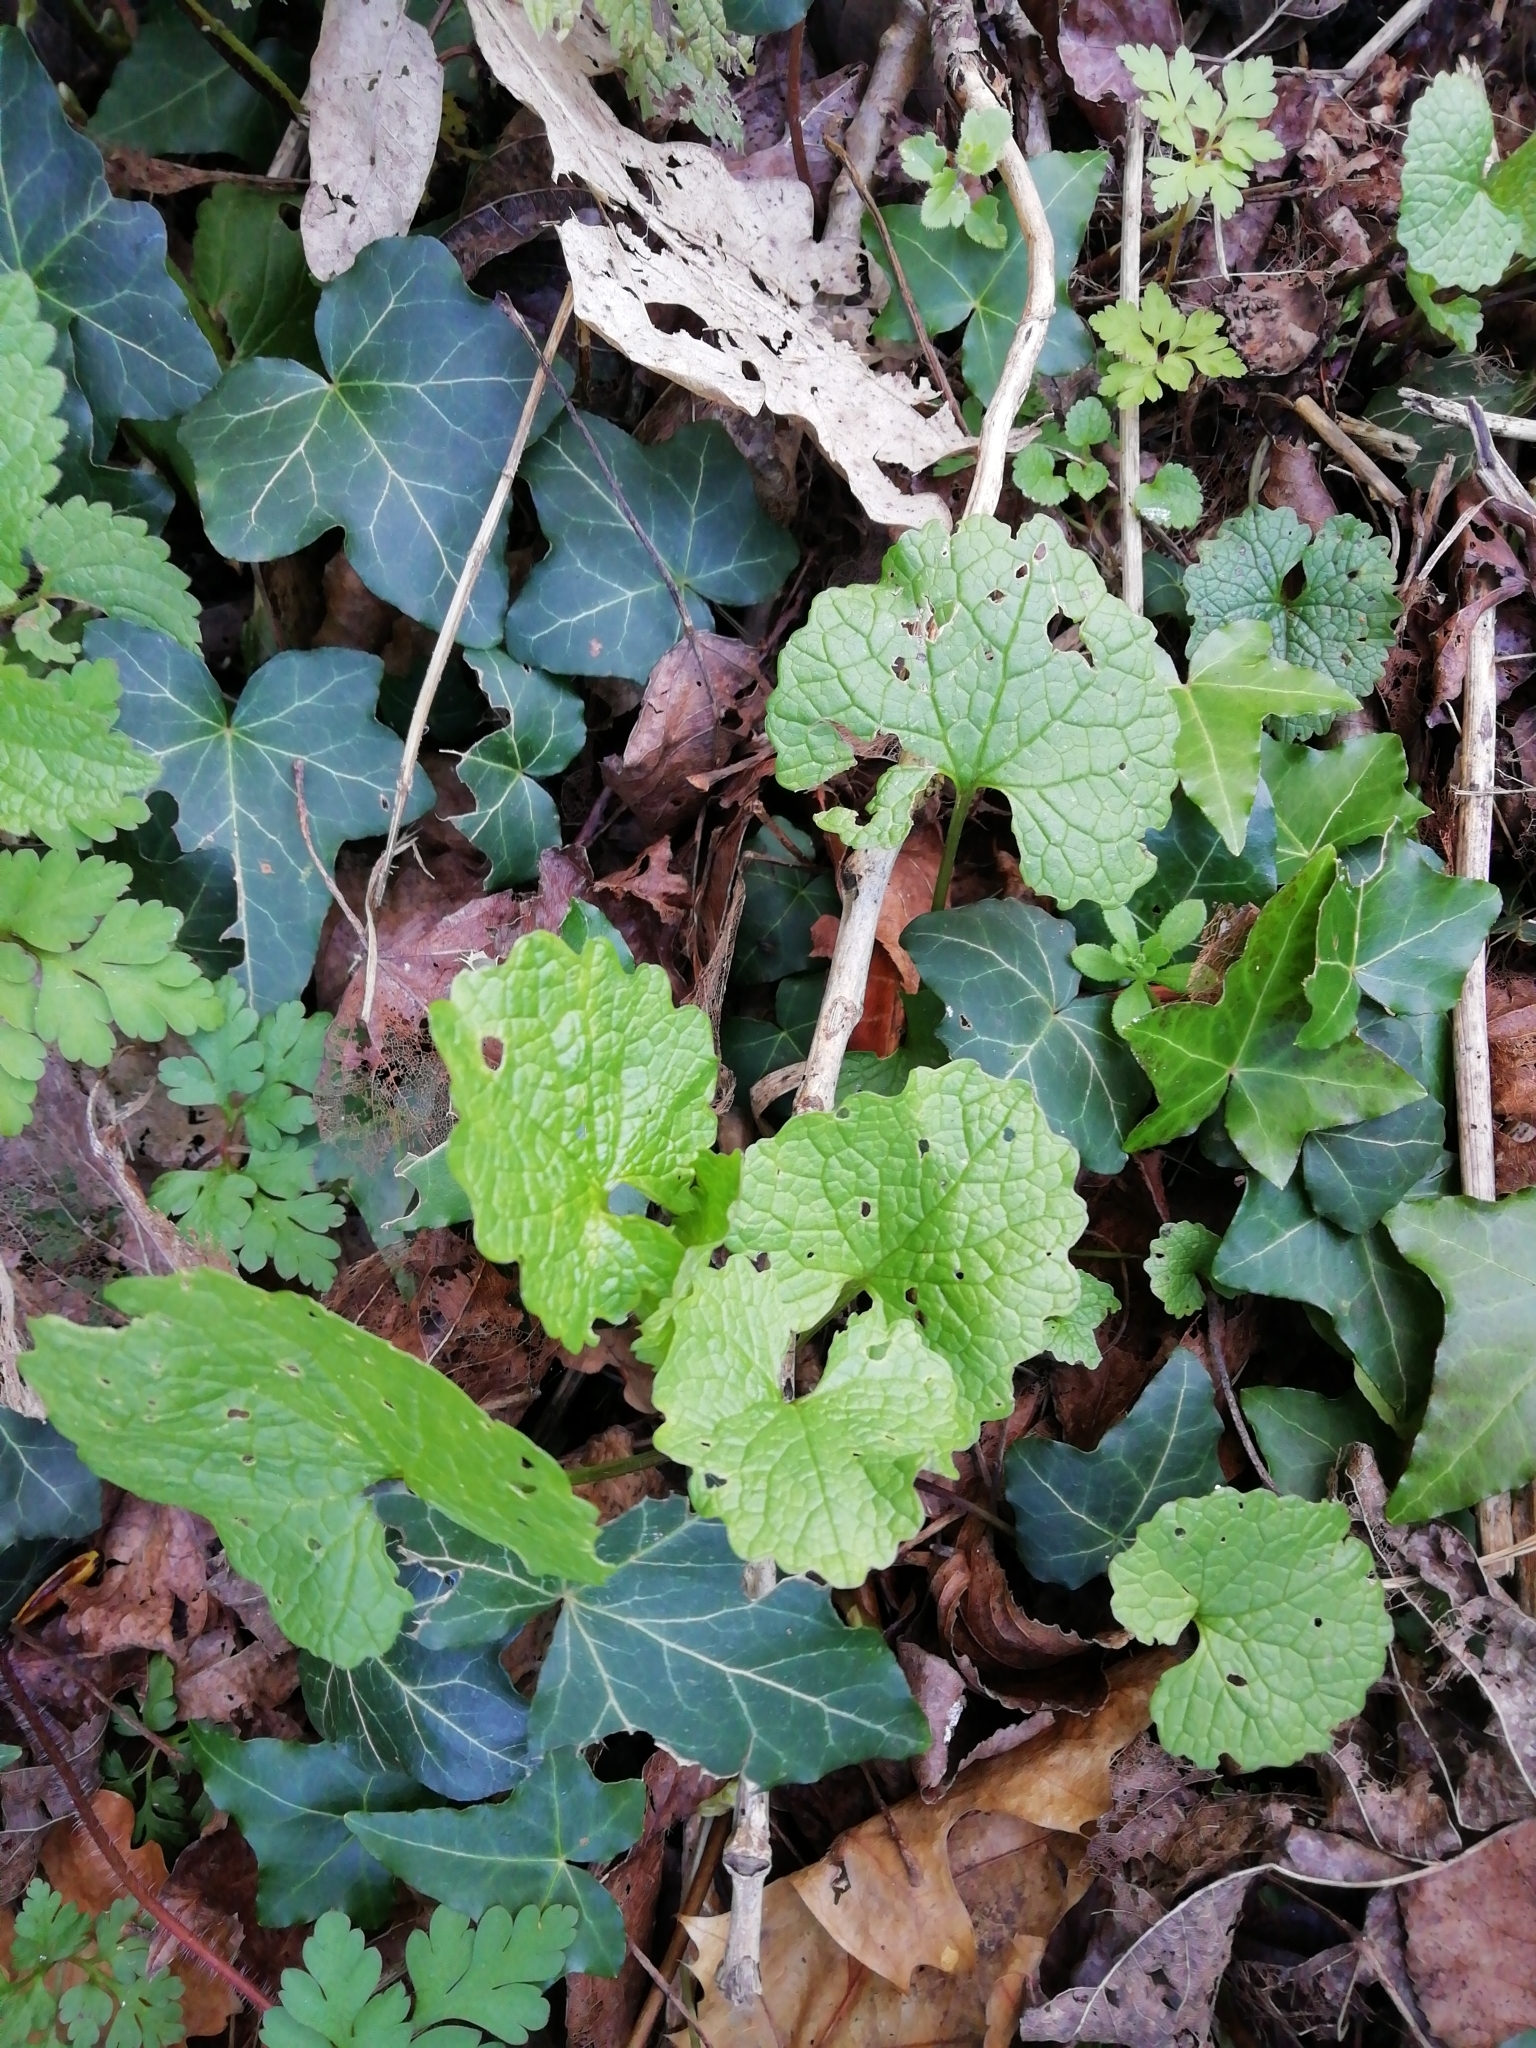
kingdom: Plantae
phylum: Tracheophyta
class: Magnoliopsida
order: Brassicales
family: Brassicaceae
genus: Alliaria
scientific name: Alliaria petiolata
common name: Garlic mustard
